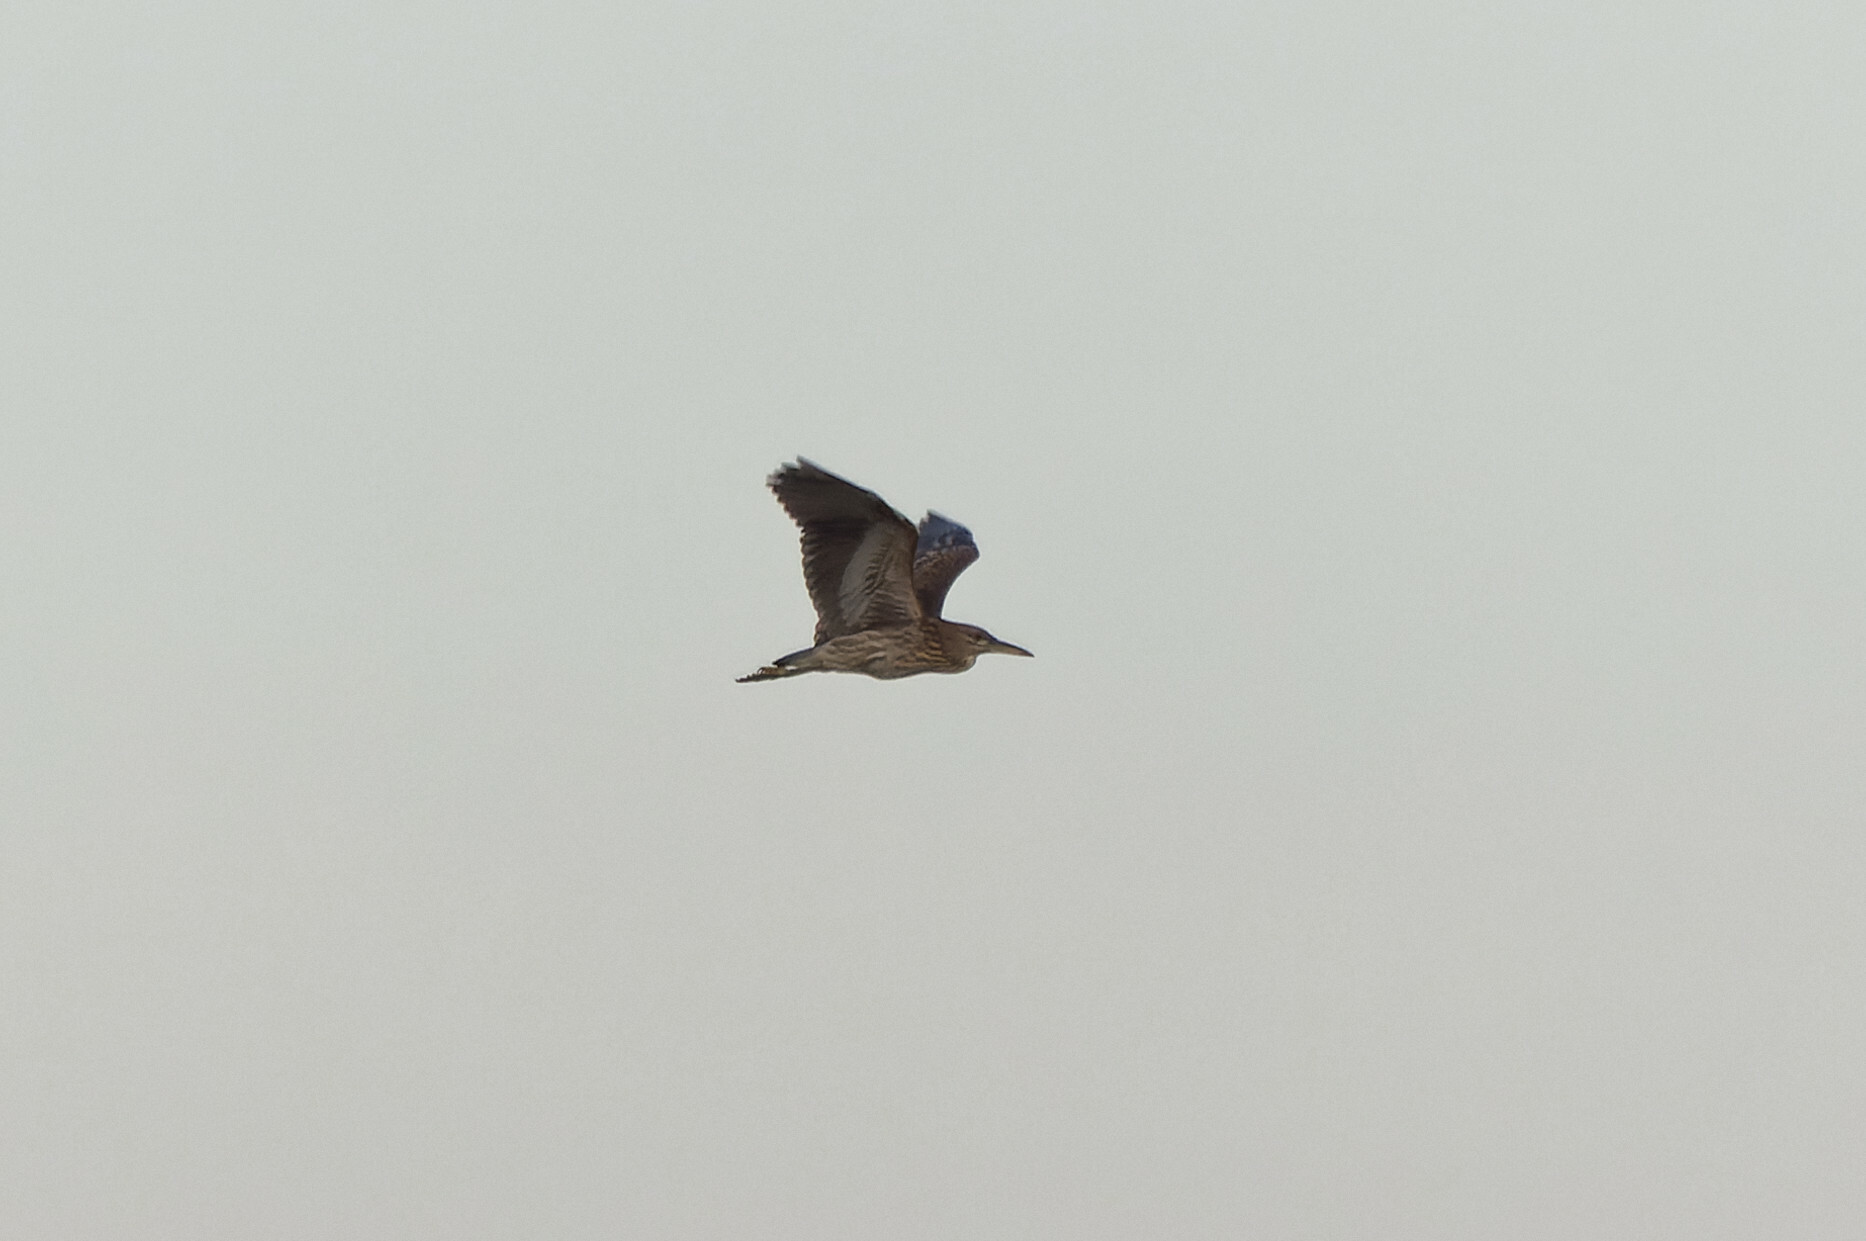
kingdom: Animalia
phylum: Chordata
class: Aves
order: Pelecaniformes
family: Ardeidae
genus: Nycticorax
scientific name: Nycticorax nycticorax
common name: Black-crowned night heron
